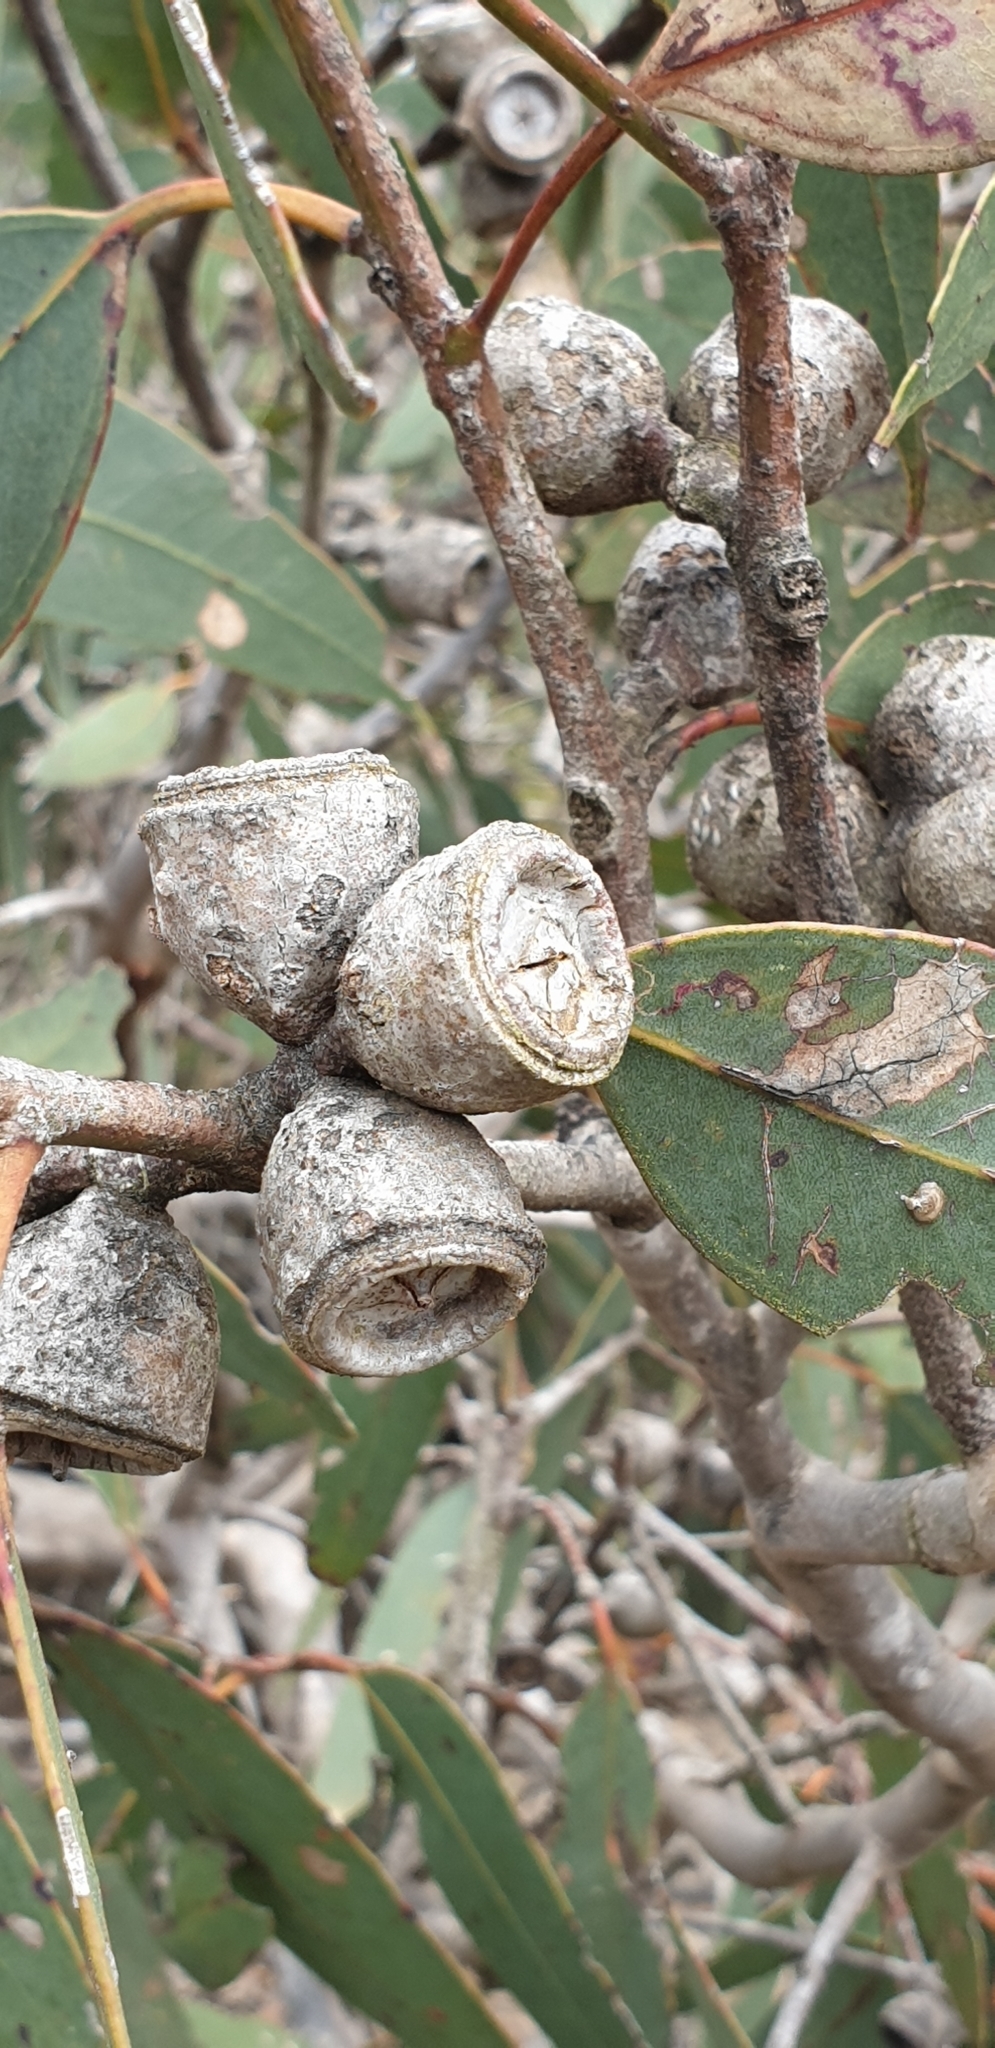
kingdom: Plantae
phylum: Tracheophyta
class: Magnoliopsida
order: Myrtales
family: Myrtaceae
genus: Eucalyptus
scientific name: Eucalyptus cosmophylla
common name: Bog-gum
